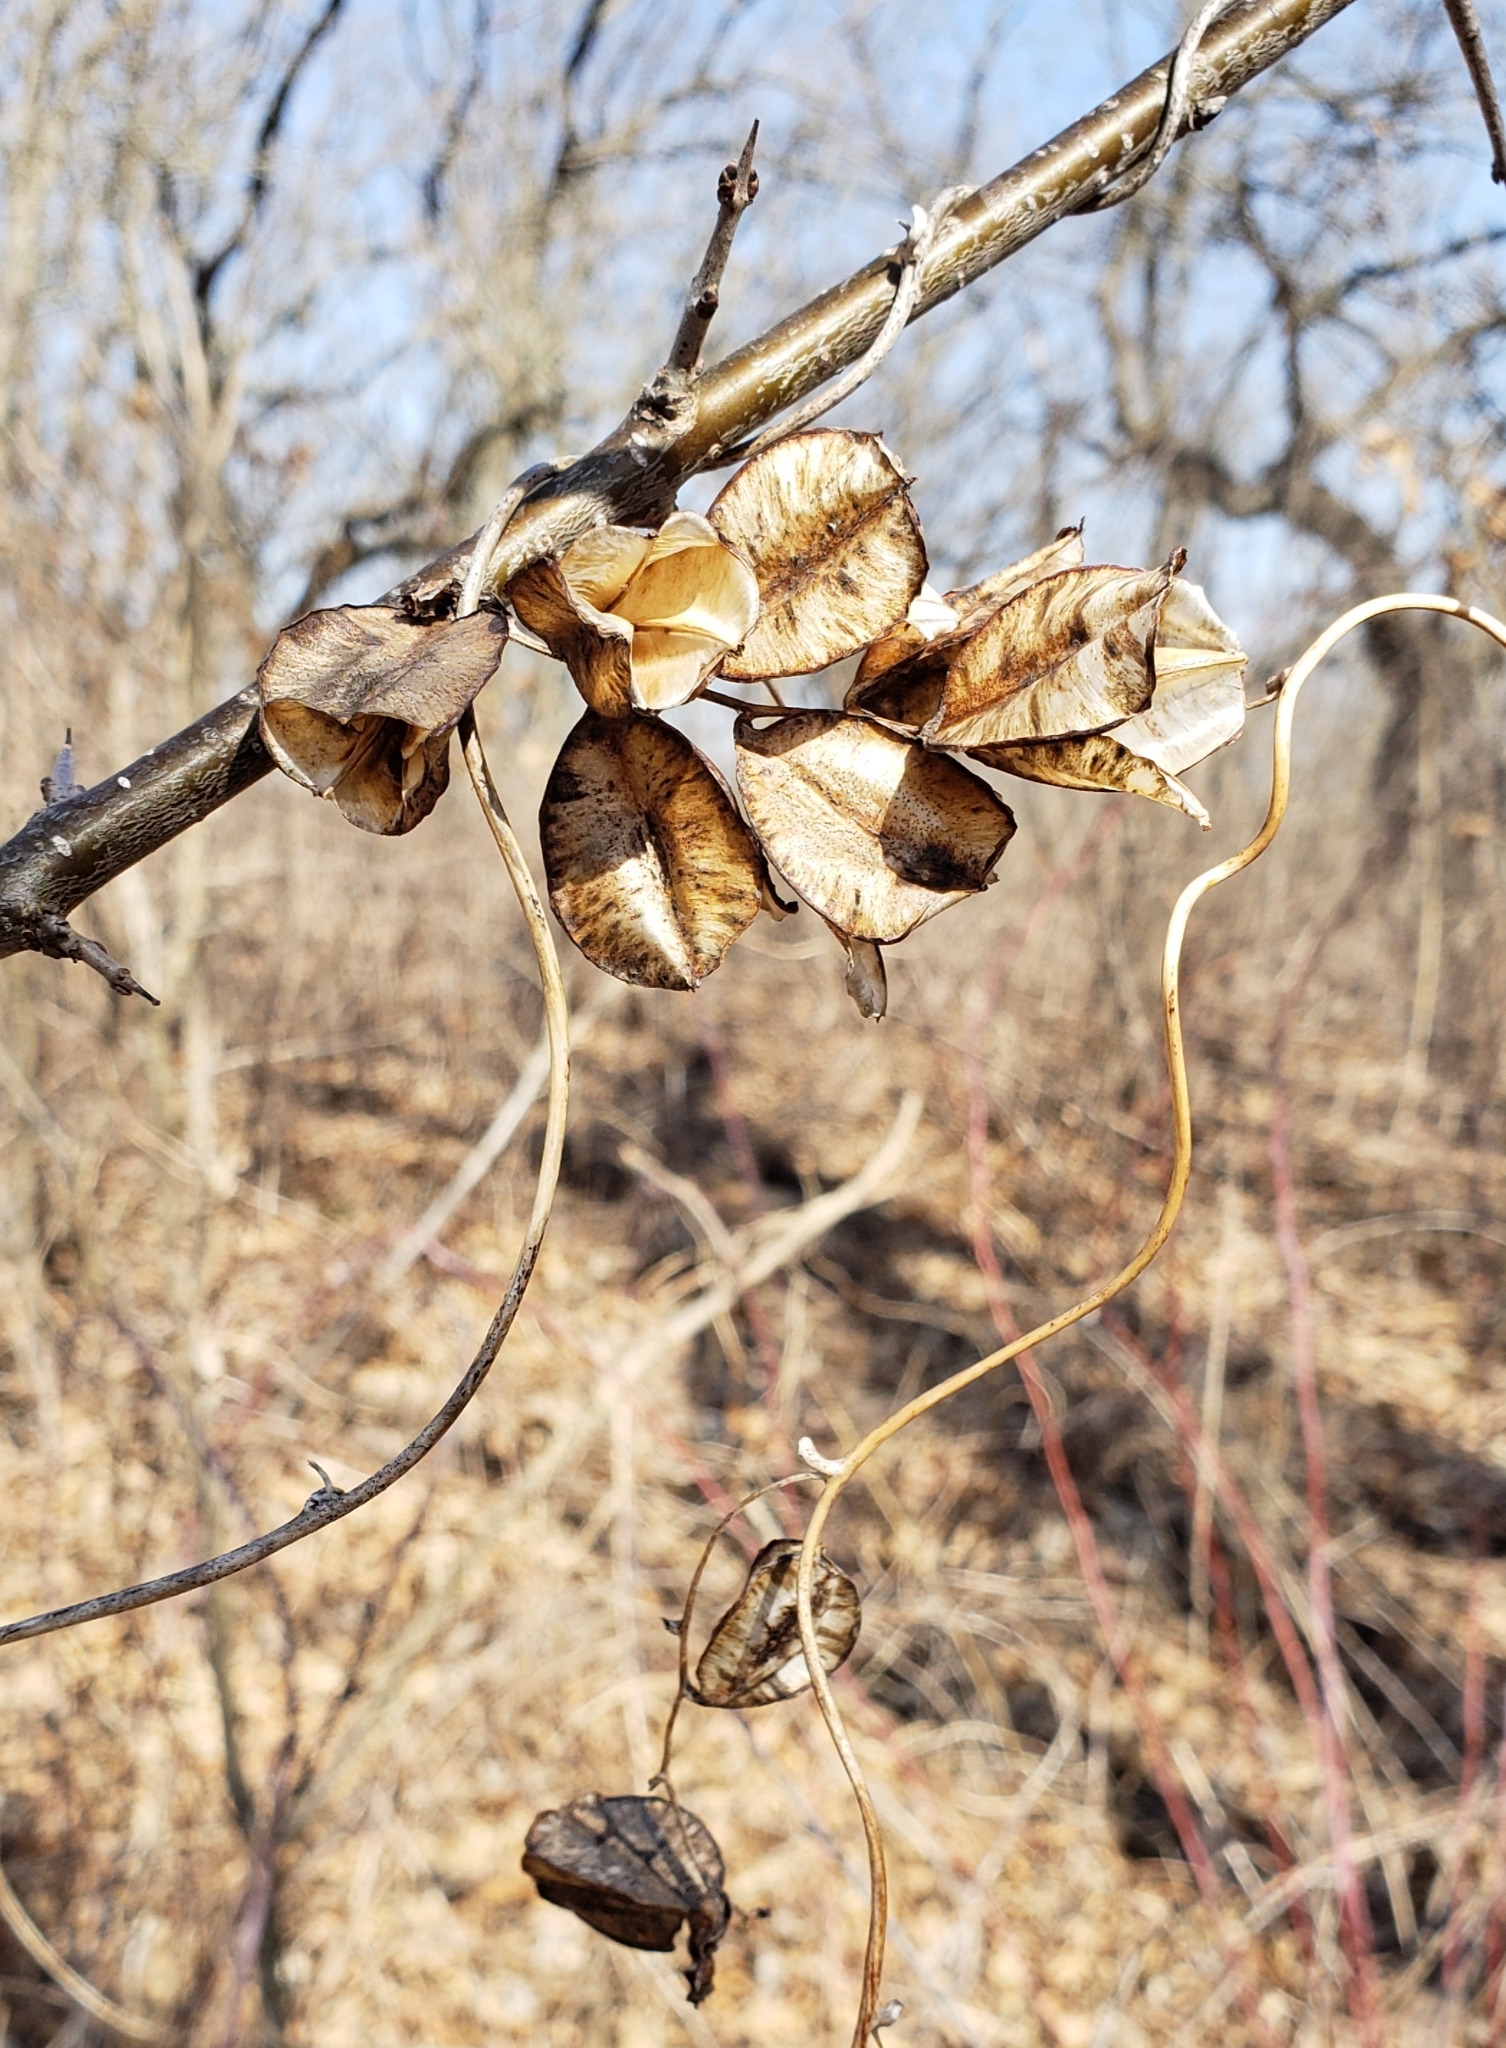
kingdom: Plantae
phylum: Tracheophyta
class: Liliopsida
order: Dioscoreales
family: Dioscoreaceae
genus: Dioscorea
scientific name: Dioscorea villosa
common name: Wild yam
